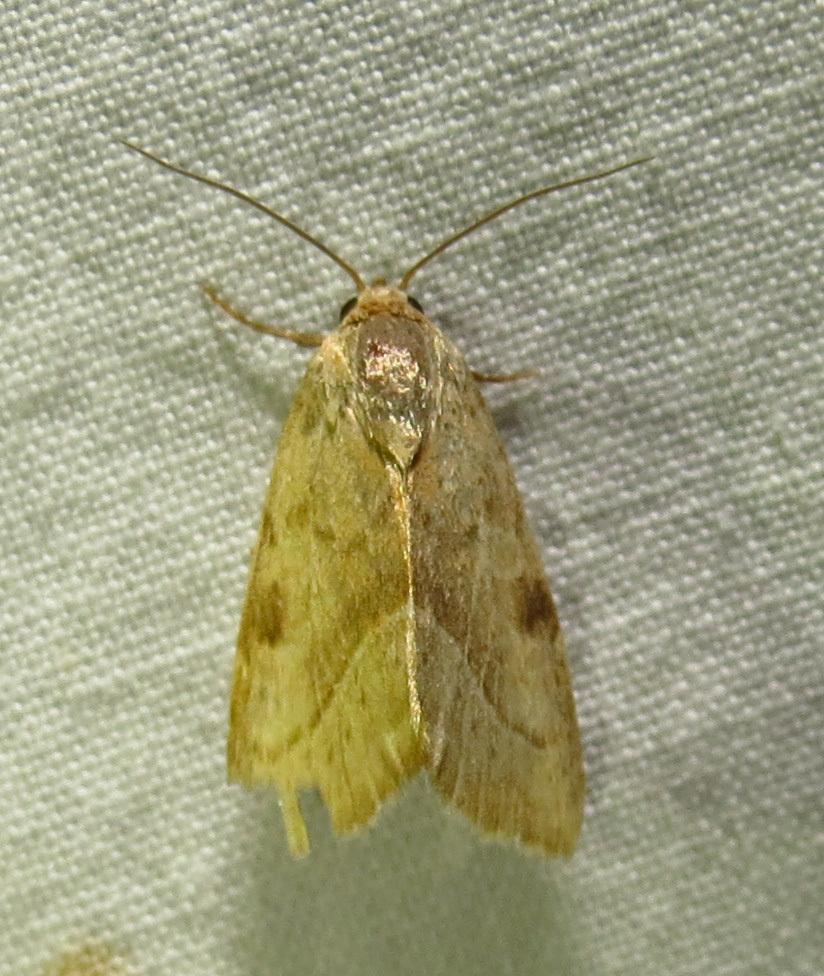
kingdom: Animalia
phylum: Arthropoda
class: Insecta
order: Lepidoptera
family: Noctuidae
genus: Galgula
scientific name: Galgula partita
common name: Wedgeling
